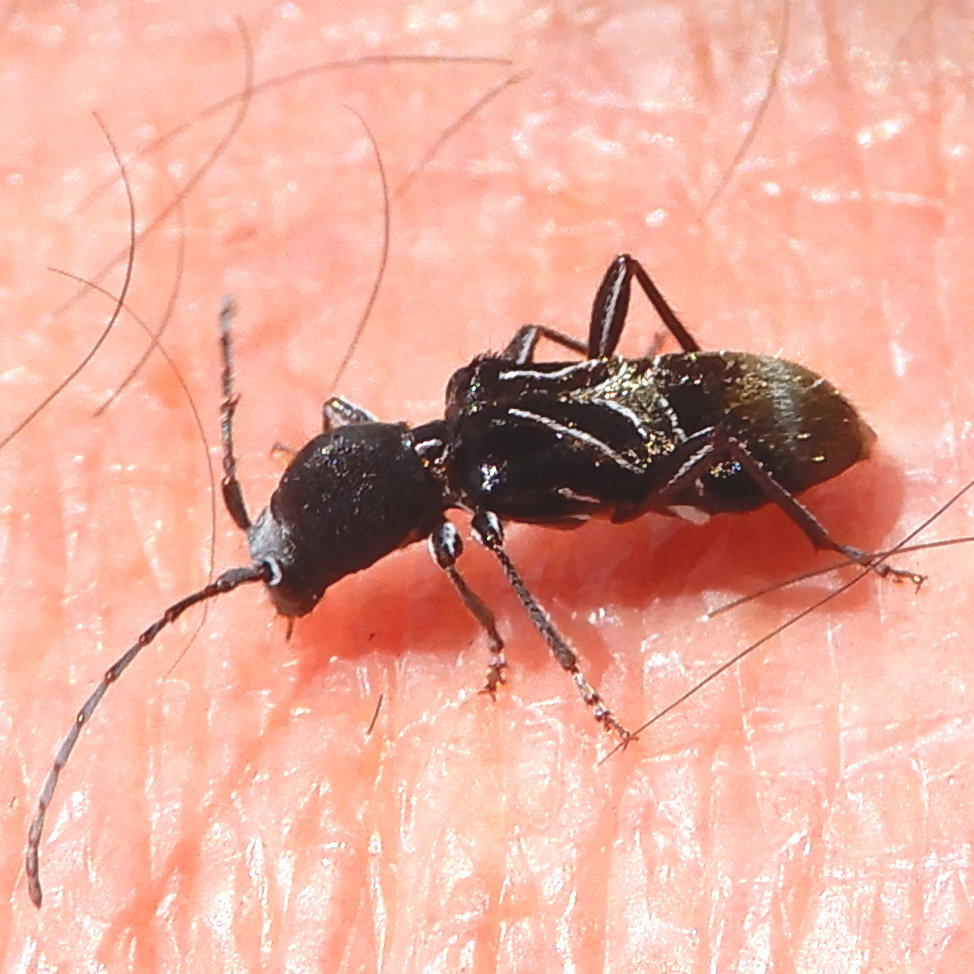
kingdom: Animalia
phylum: Arthropoda
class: Insecta
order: Coleoptera
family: Cerambycidae
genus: Cyrtophorus
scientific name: Cyrtophorus verrucosus
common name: Ant-like longhorn beetle
